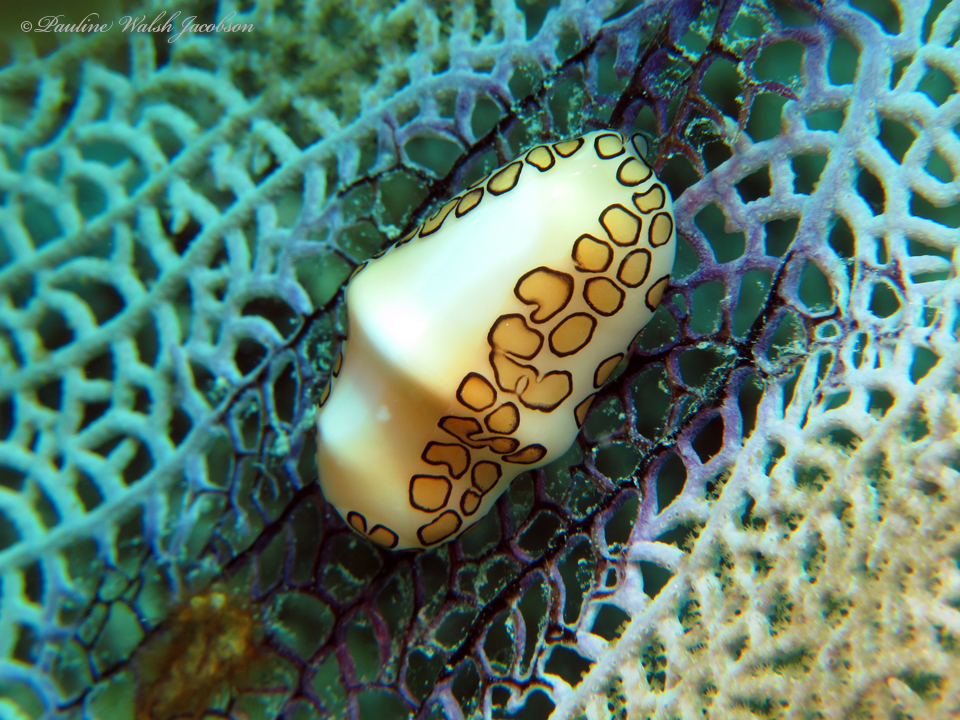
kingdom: Animalia
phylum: Mollusca
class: Gastropoda
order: Littorinimorpha
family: Ovulidae
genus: Cyphoma
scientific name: Cyphoma gibbosum
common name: Flamingo tongue
